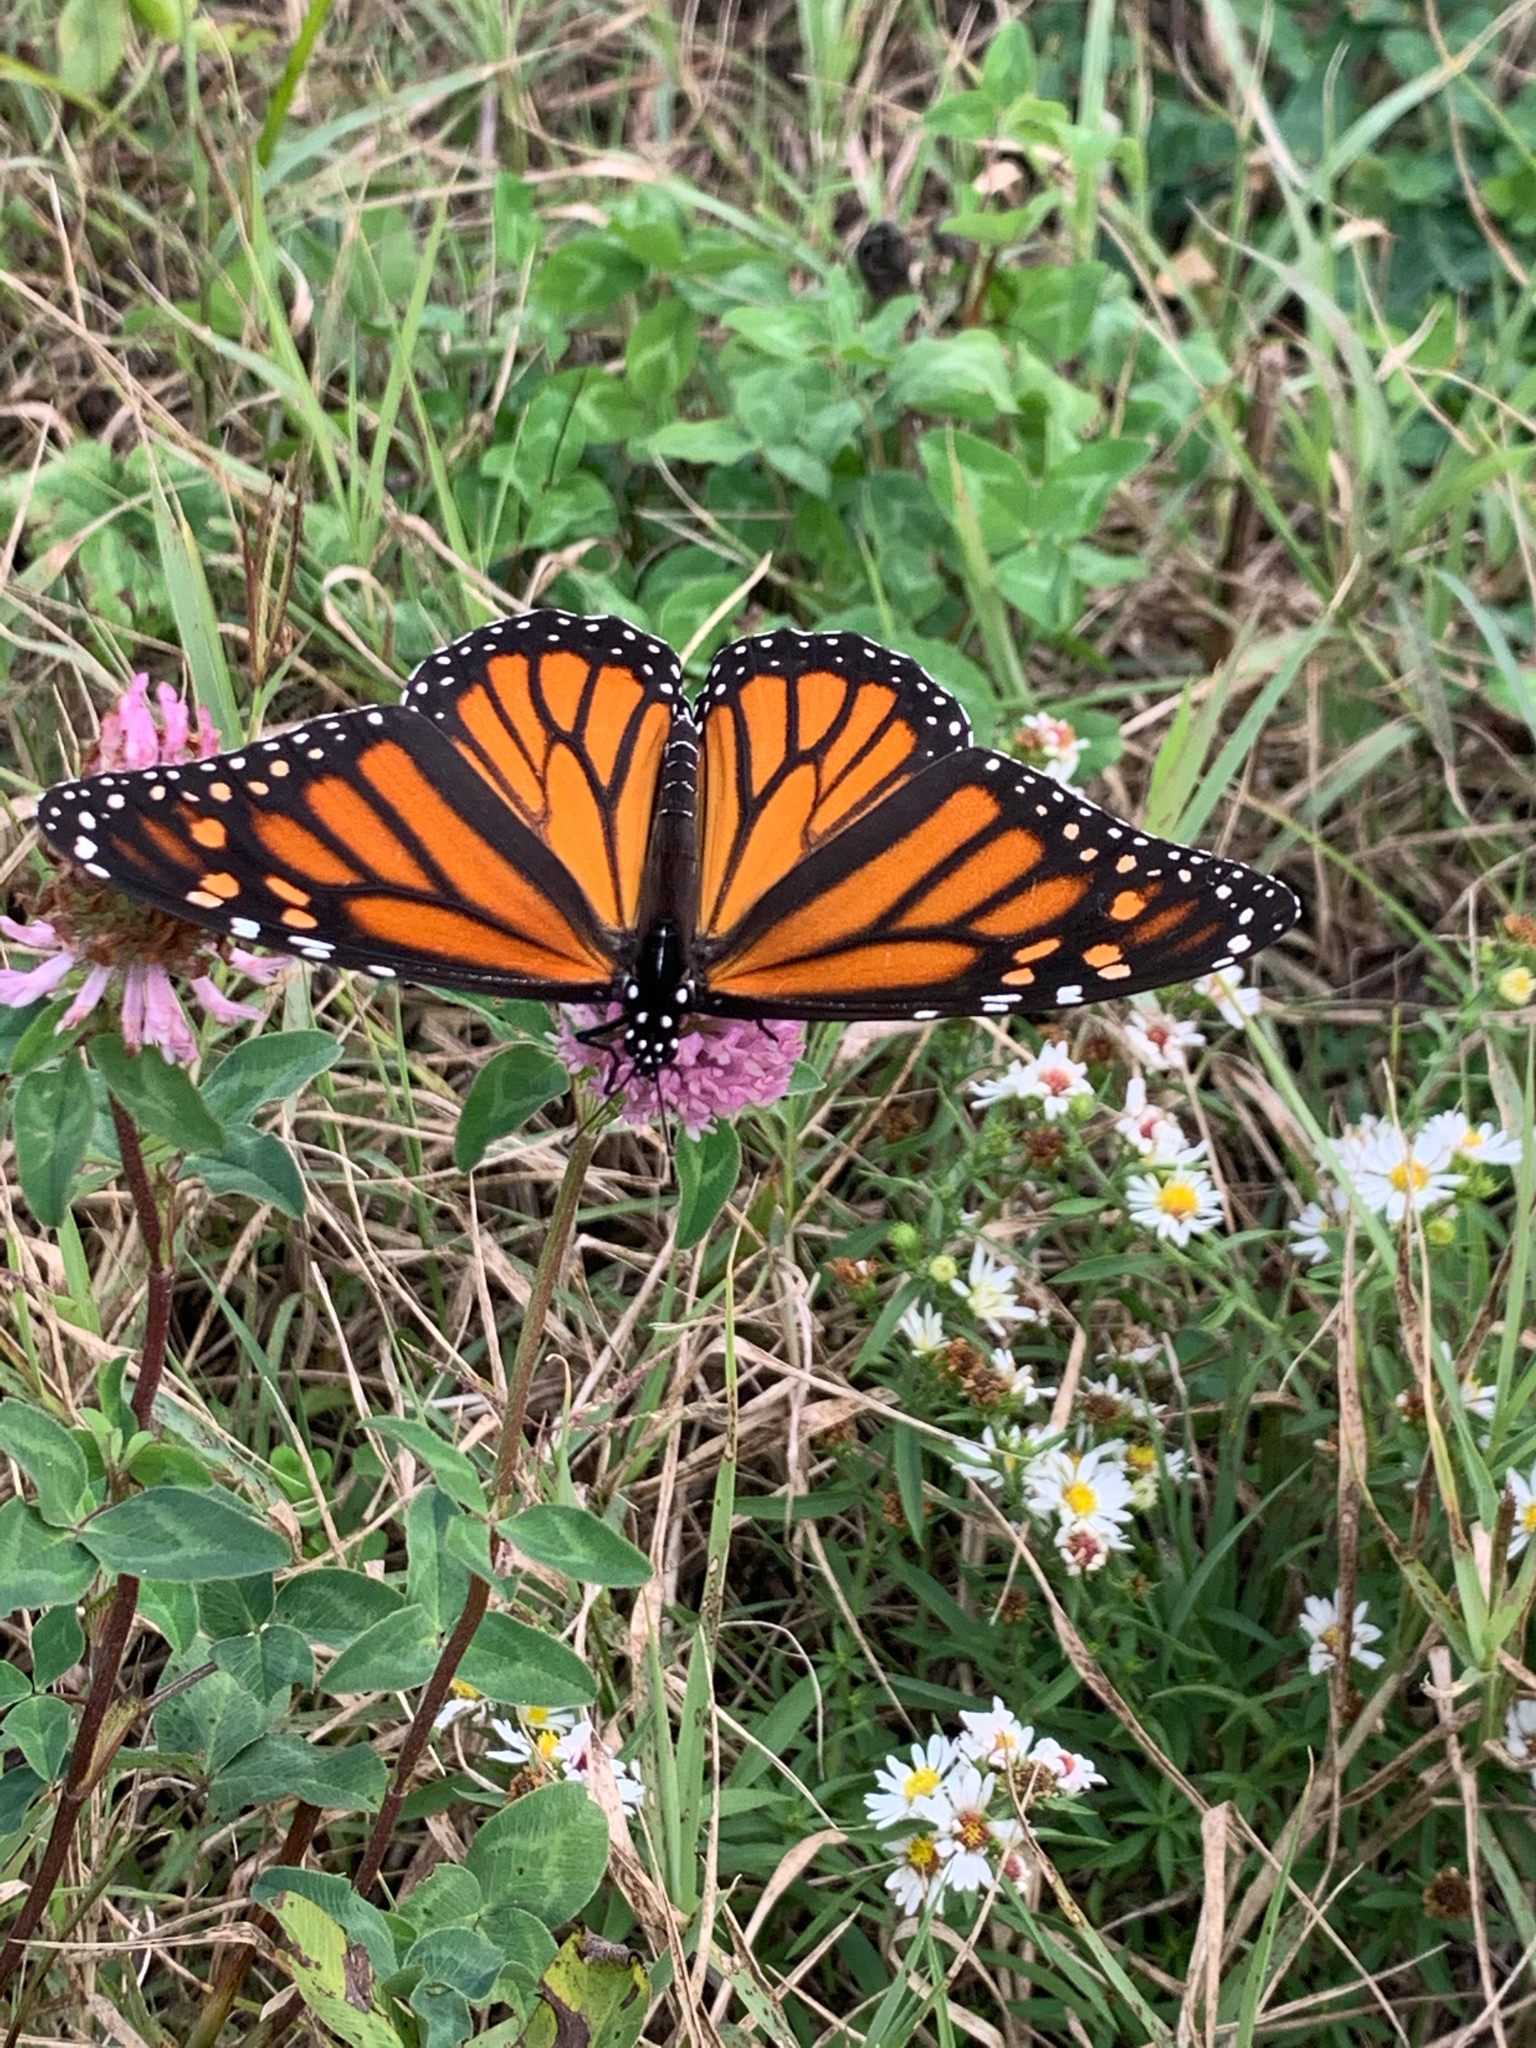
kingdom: Animalia
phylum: Arthropoda
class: Insecta
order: Lepidoptera
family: Nymphalidae
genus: Danaus
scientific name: Danaus plexippus
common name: Monarch
